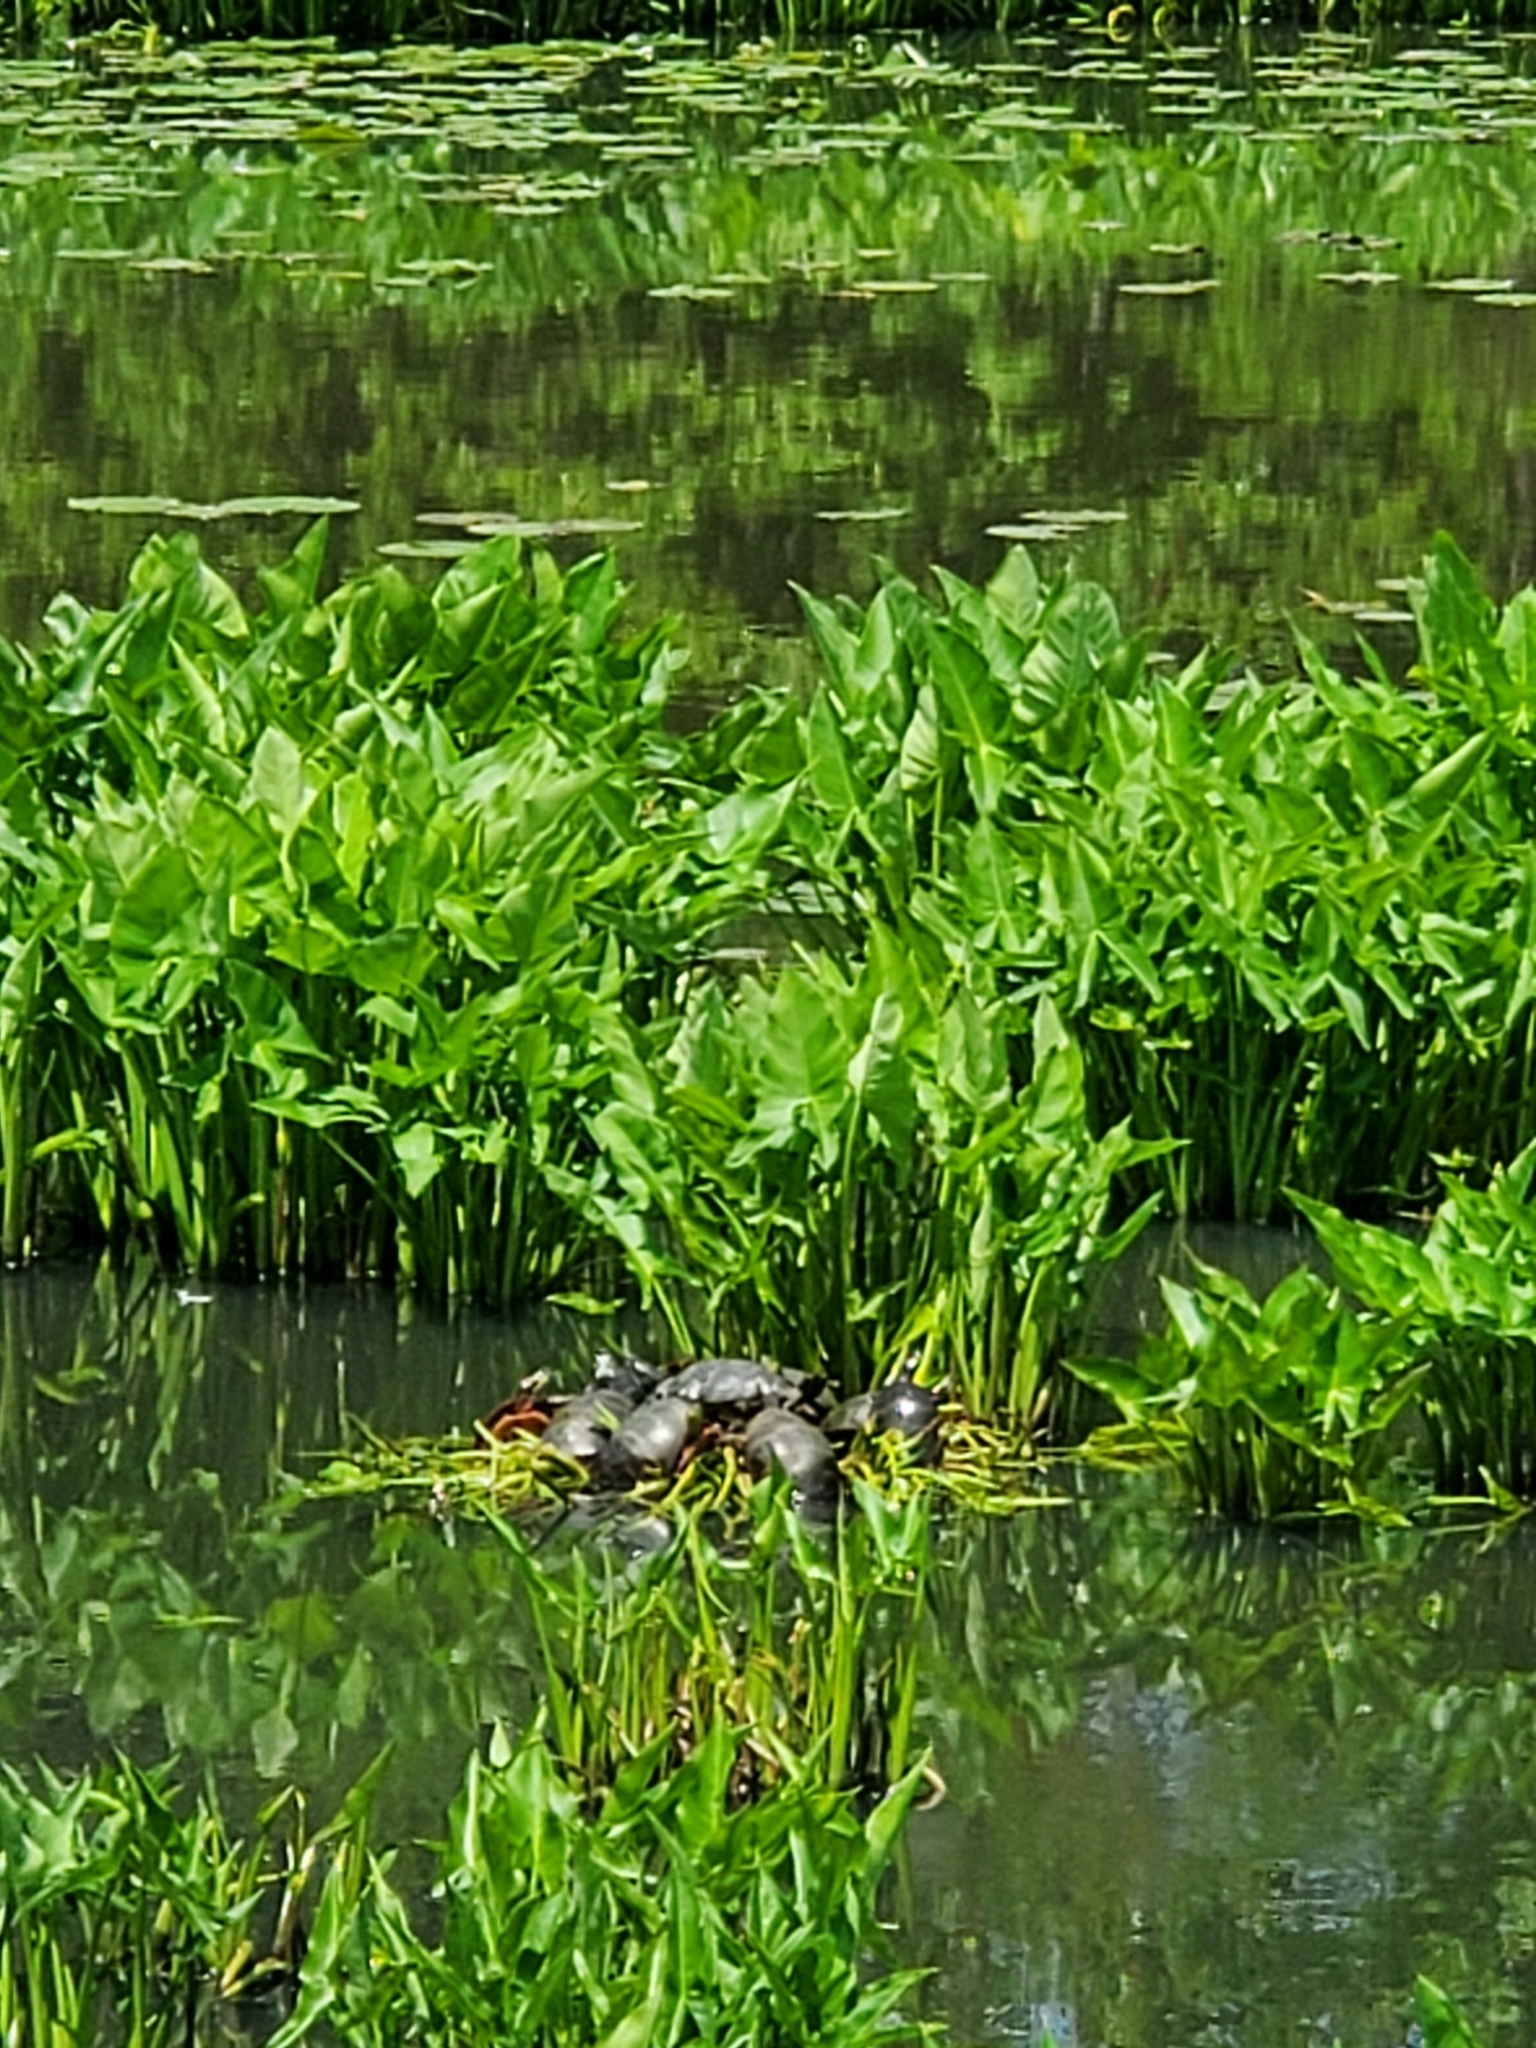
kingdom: Animalia
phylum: Chordata
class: Testudines
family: Emydidae
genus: Chrysemys
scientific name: Chrysemys picta
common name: Painted turtle
